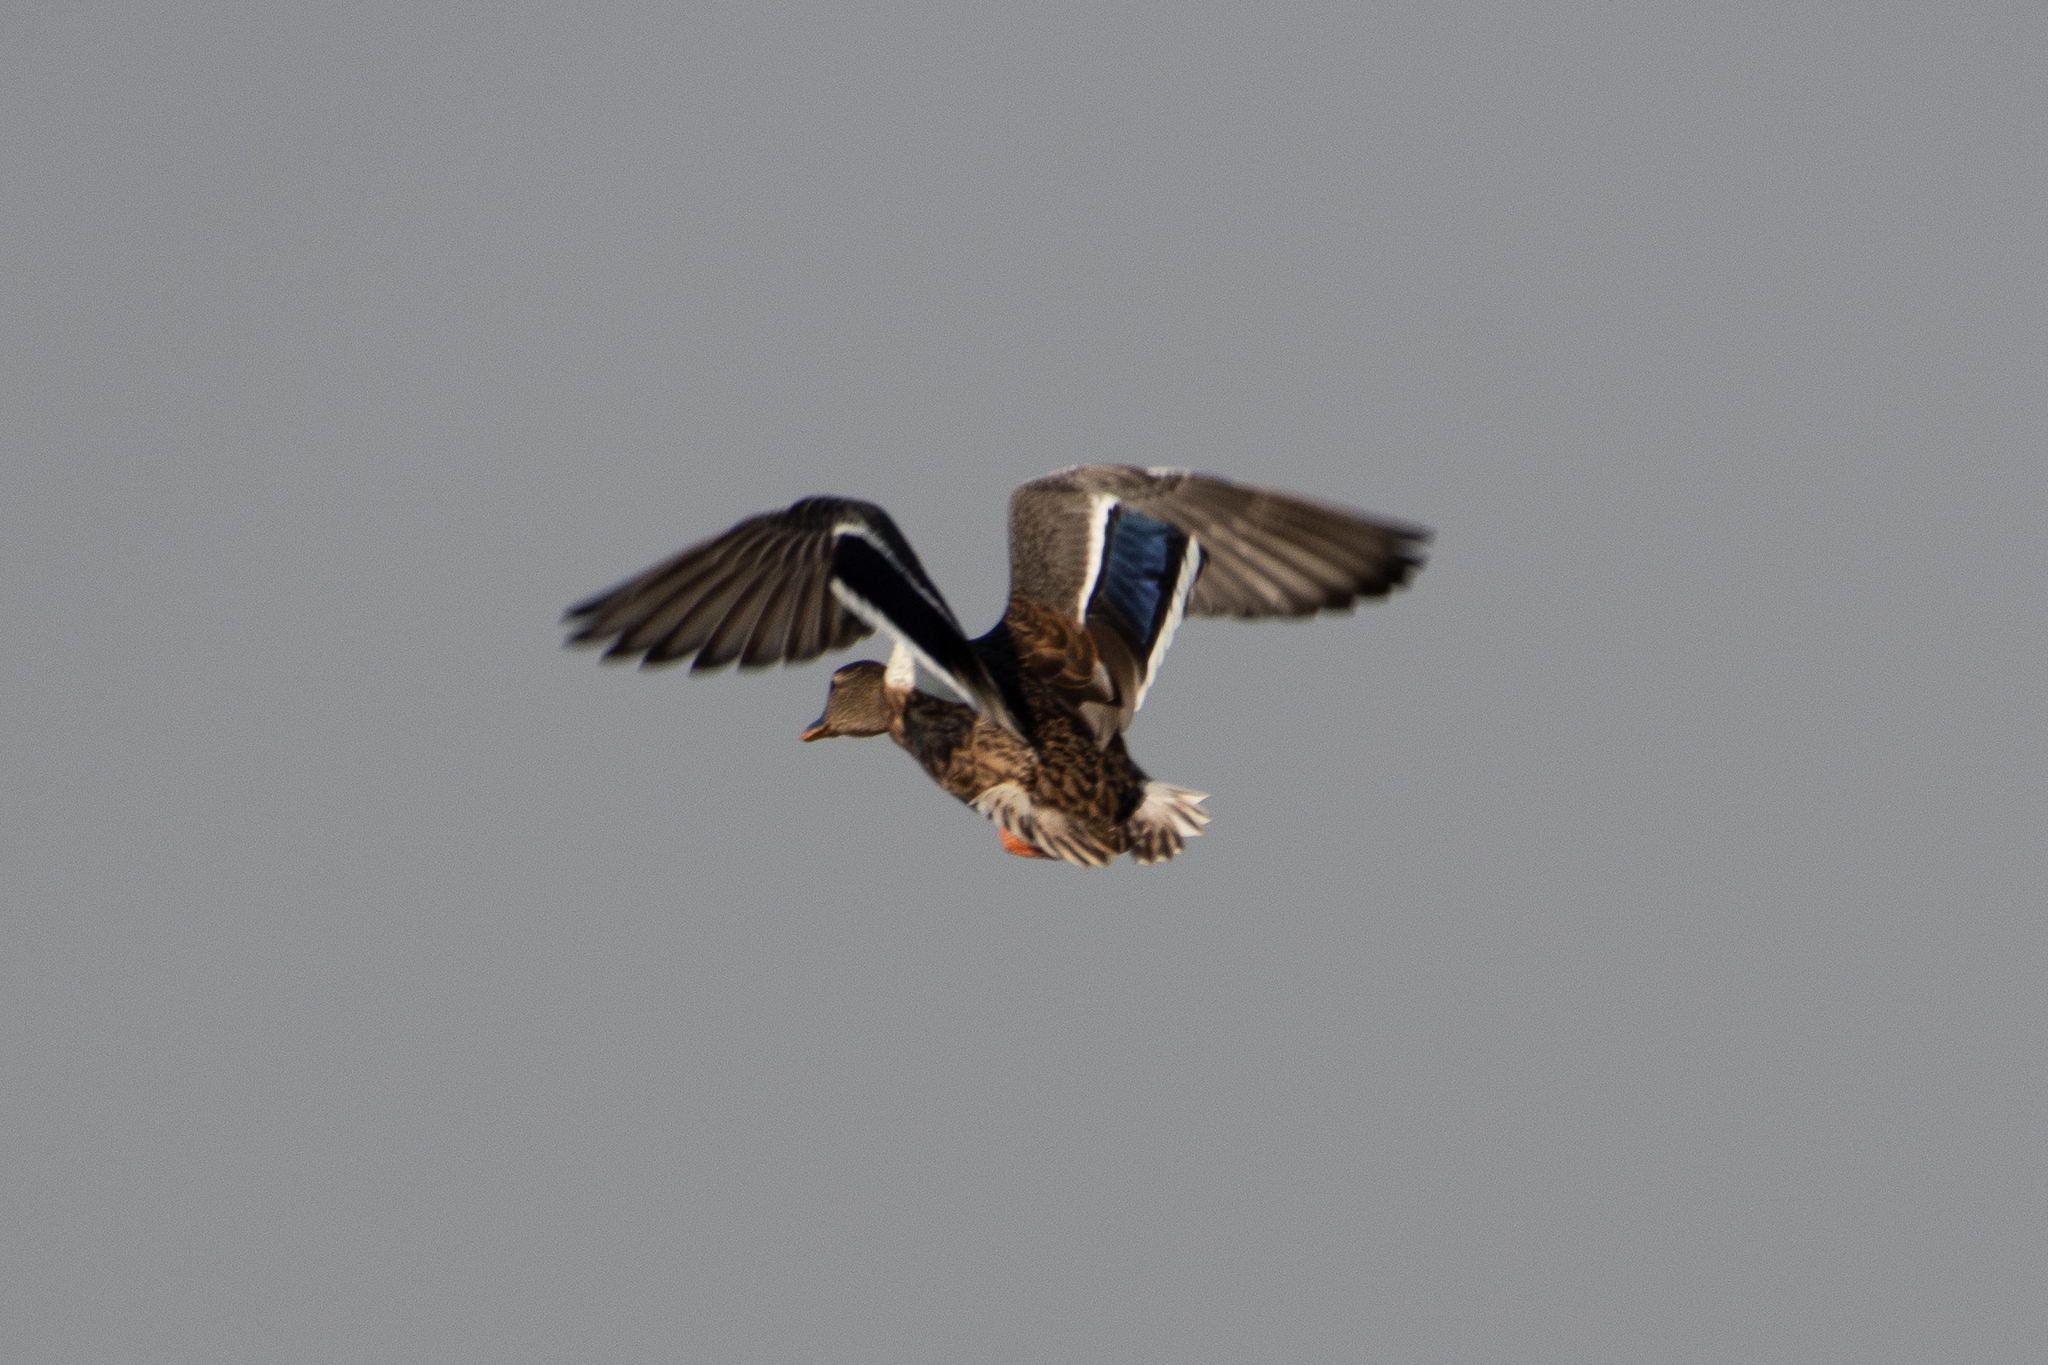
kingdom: Animalia
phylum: Chordata
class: Aves
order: Anseriformes
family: Anatidae
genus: Anas
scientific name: Anas platyrhynchos
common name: Mallard
